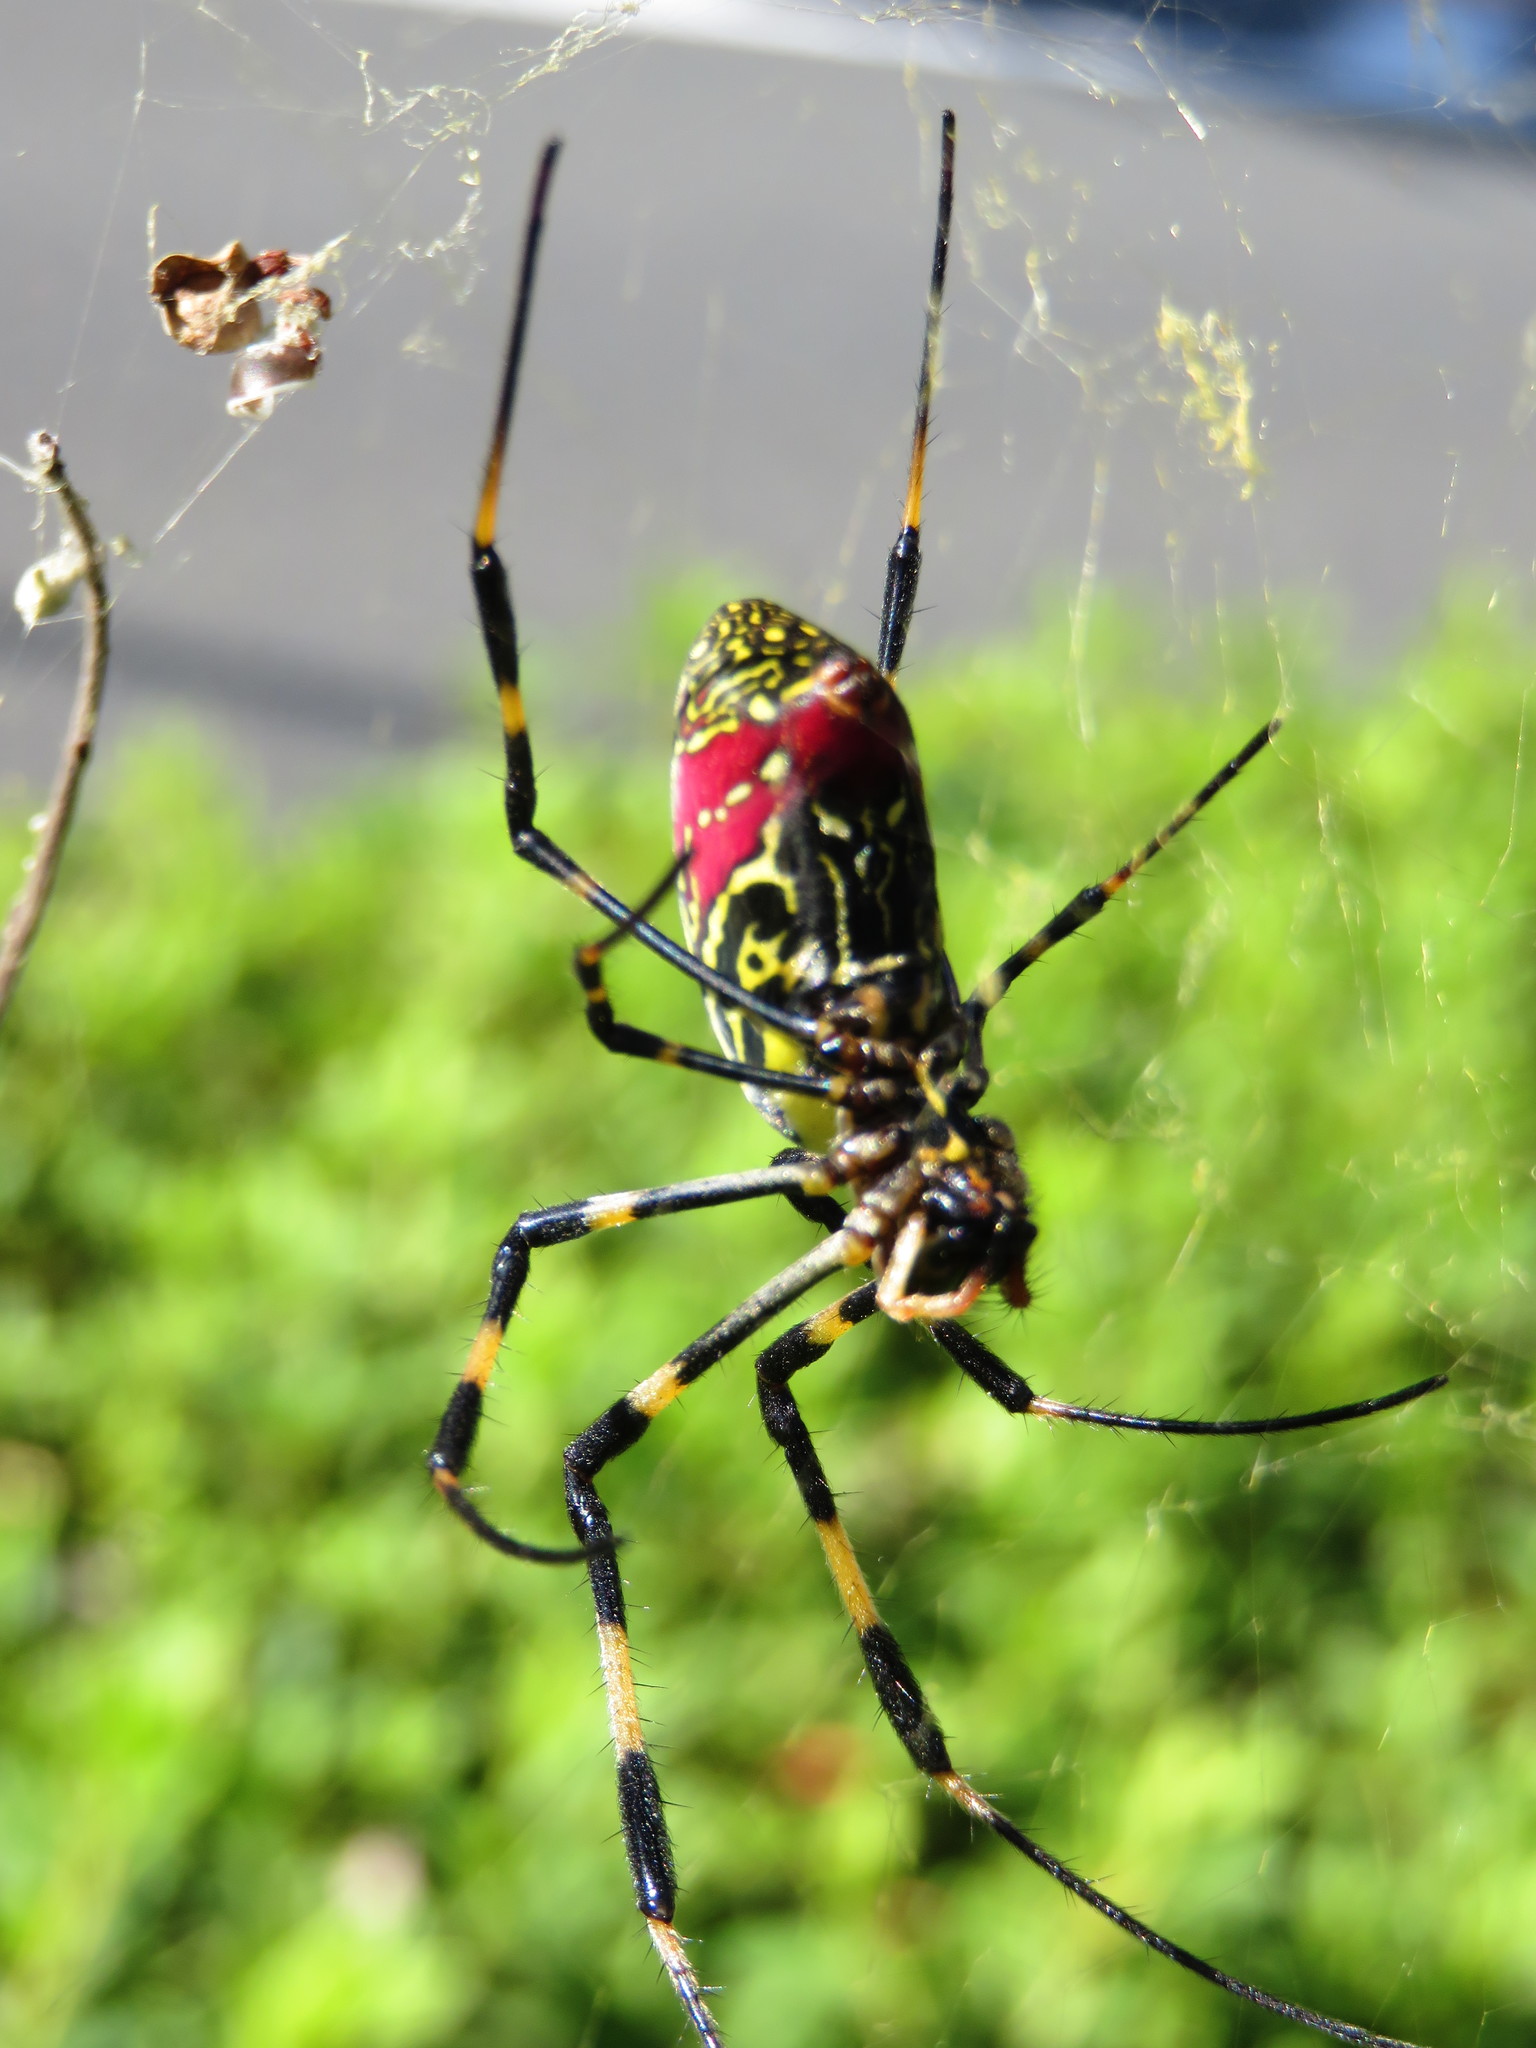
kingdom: Animalia
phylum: Arthropoda
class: Arachnida
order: Araneae
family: Araneidae
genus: Trichonephila
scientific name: Trichonephila clavata
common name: Jorō spider
